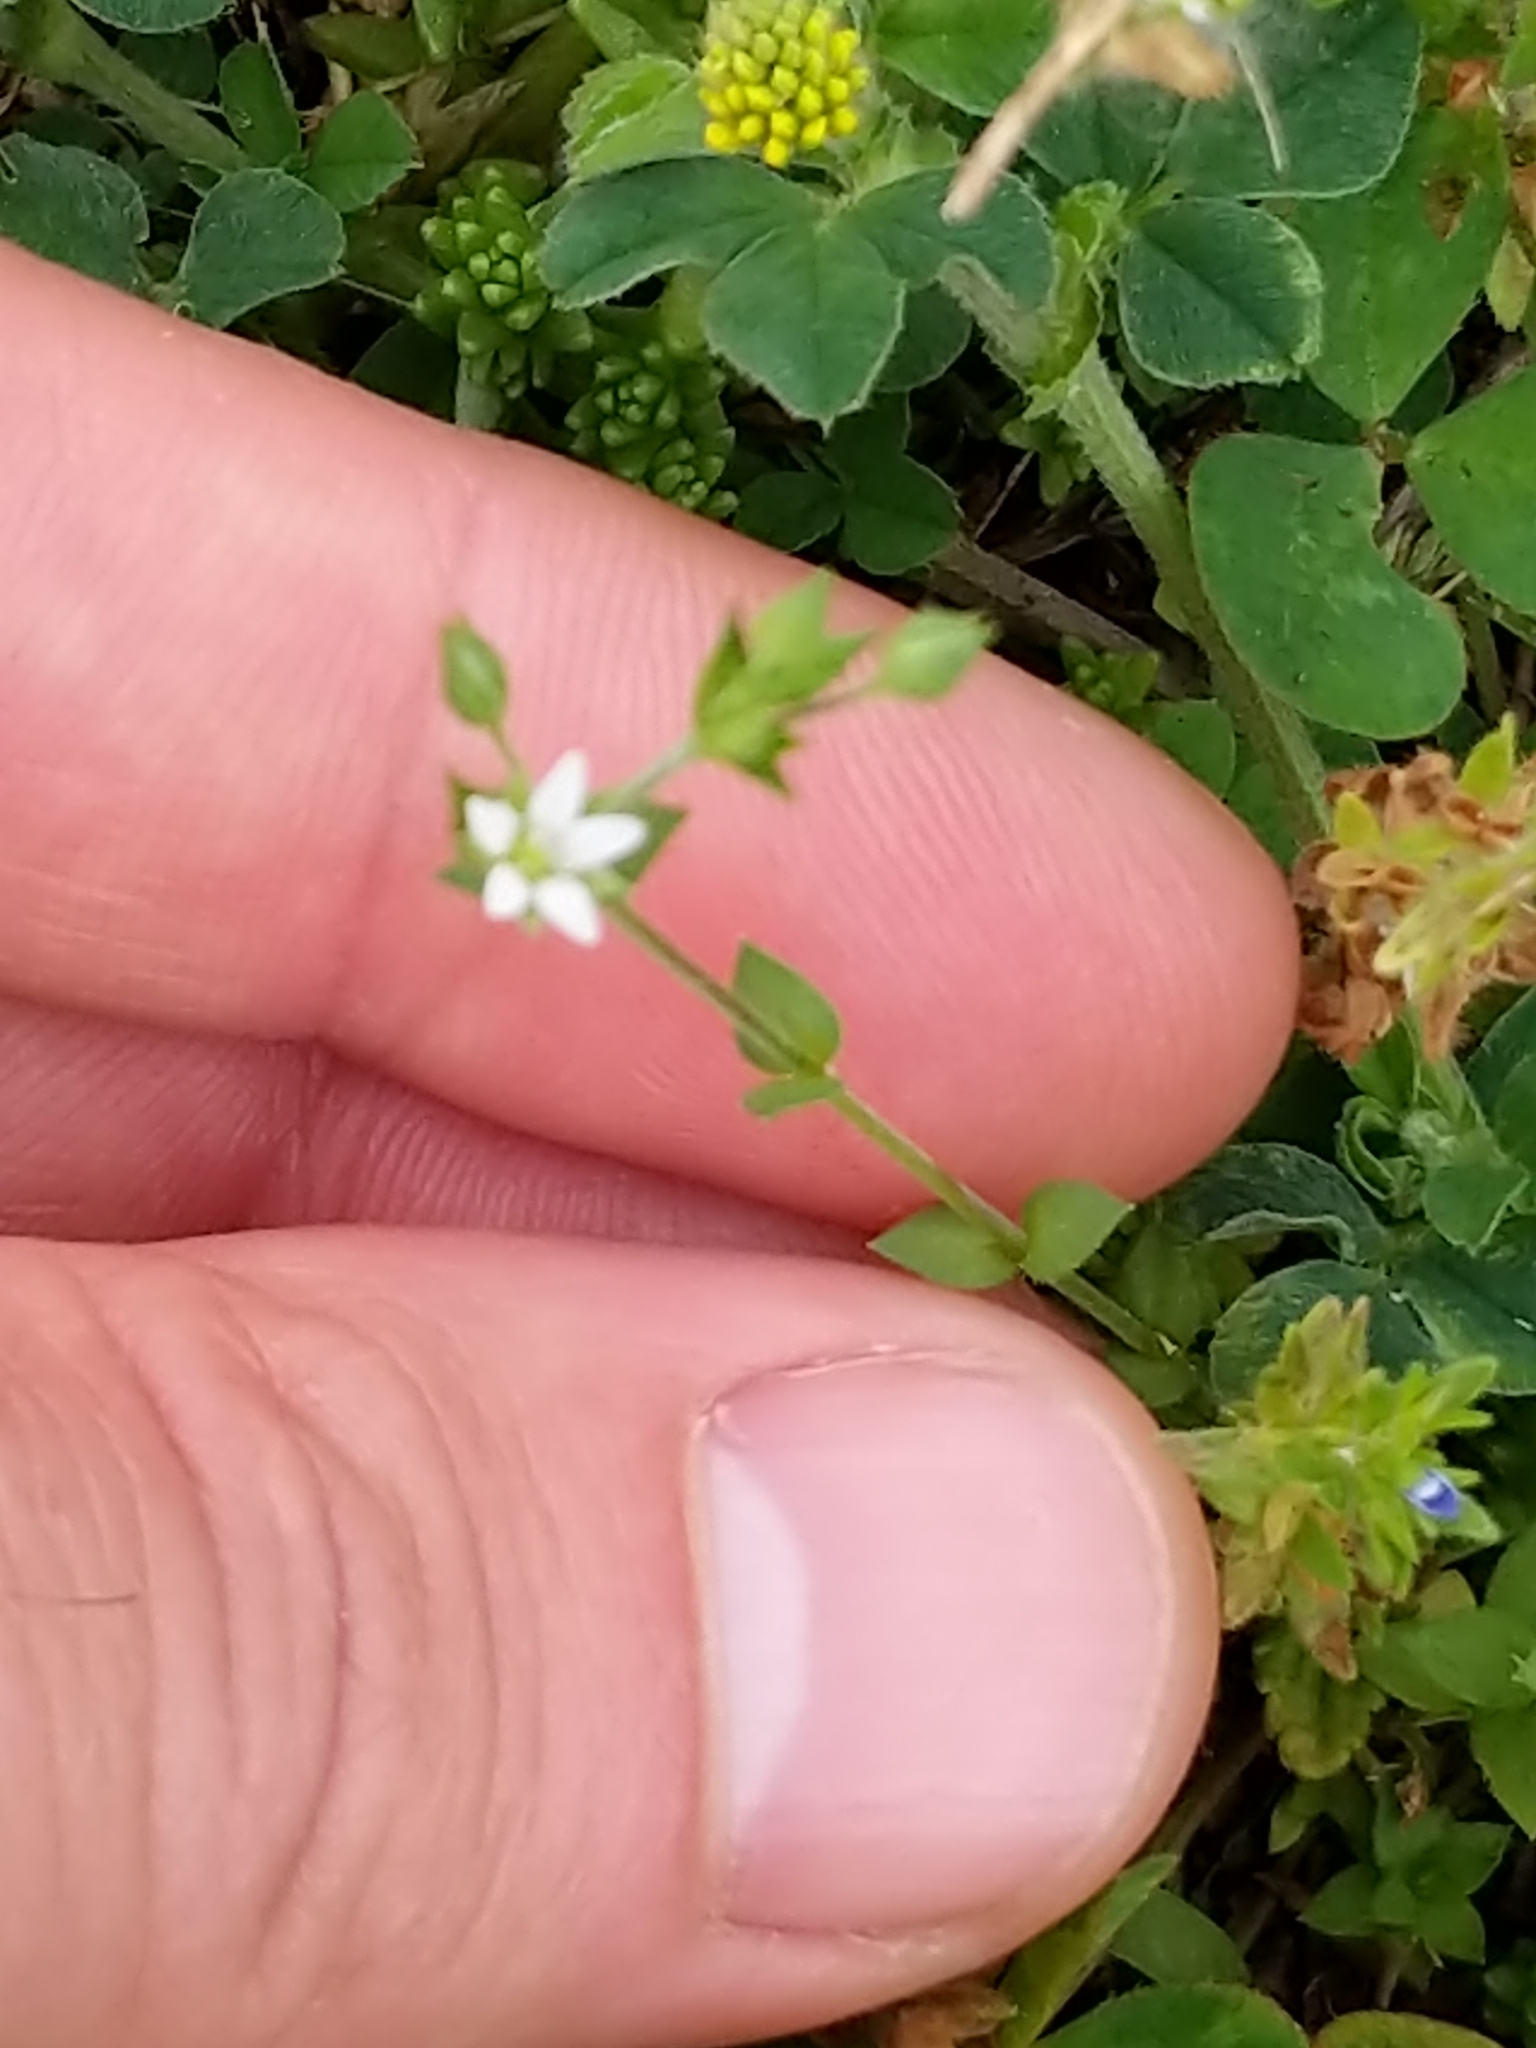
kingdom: Plantae
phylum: Tracheophyta
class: Magnoliopsida
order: Caryophyllales
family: Caryophyllaceae
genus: Arenaria
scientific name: Arenaria serpyllifolia
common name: Thyme-leaved sandwort
